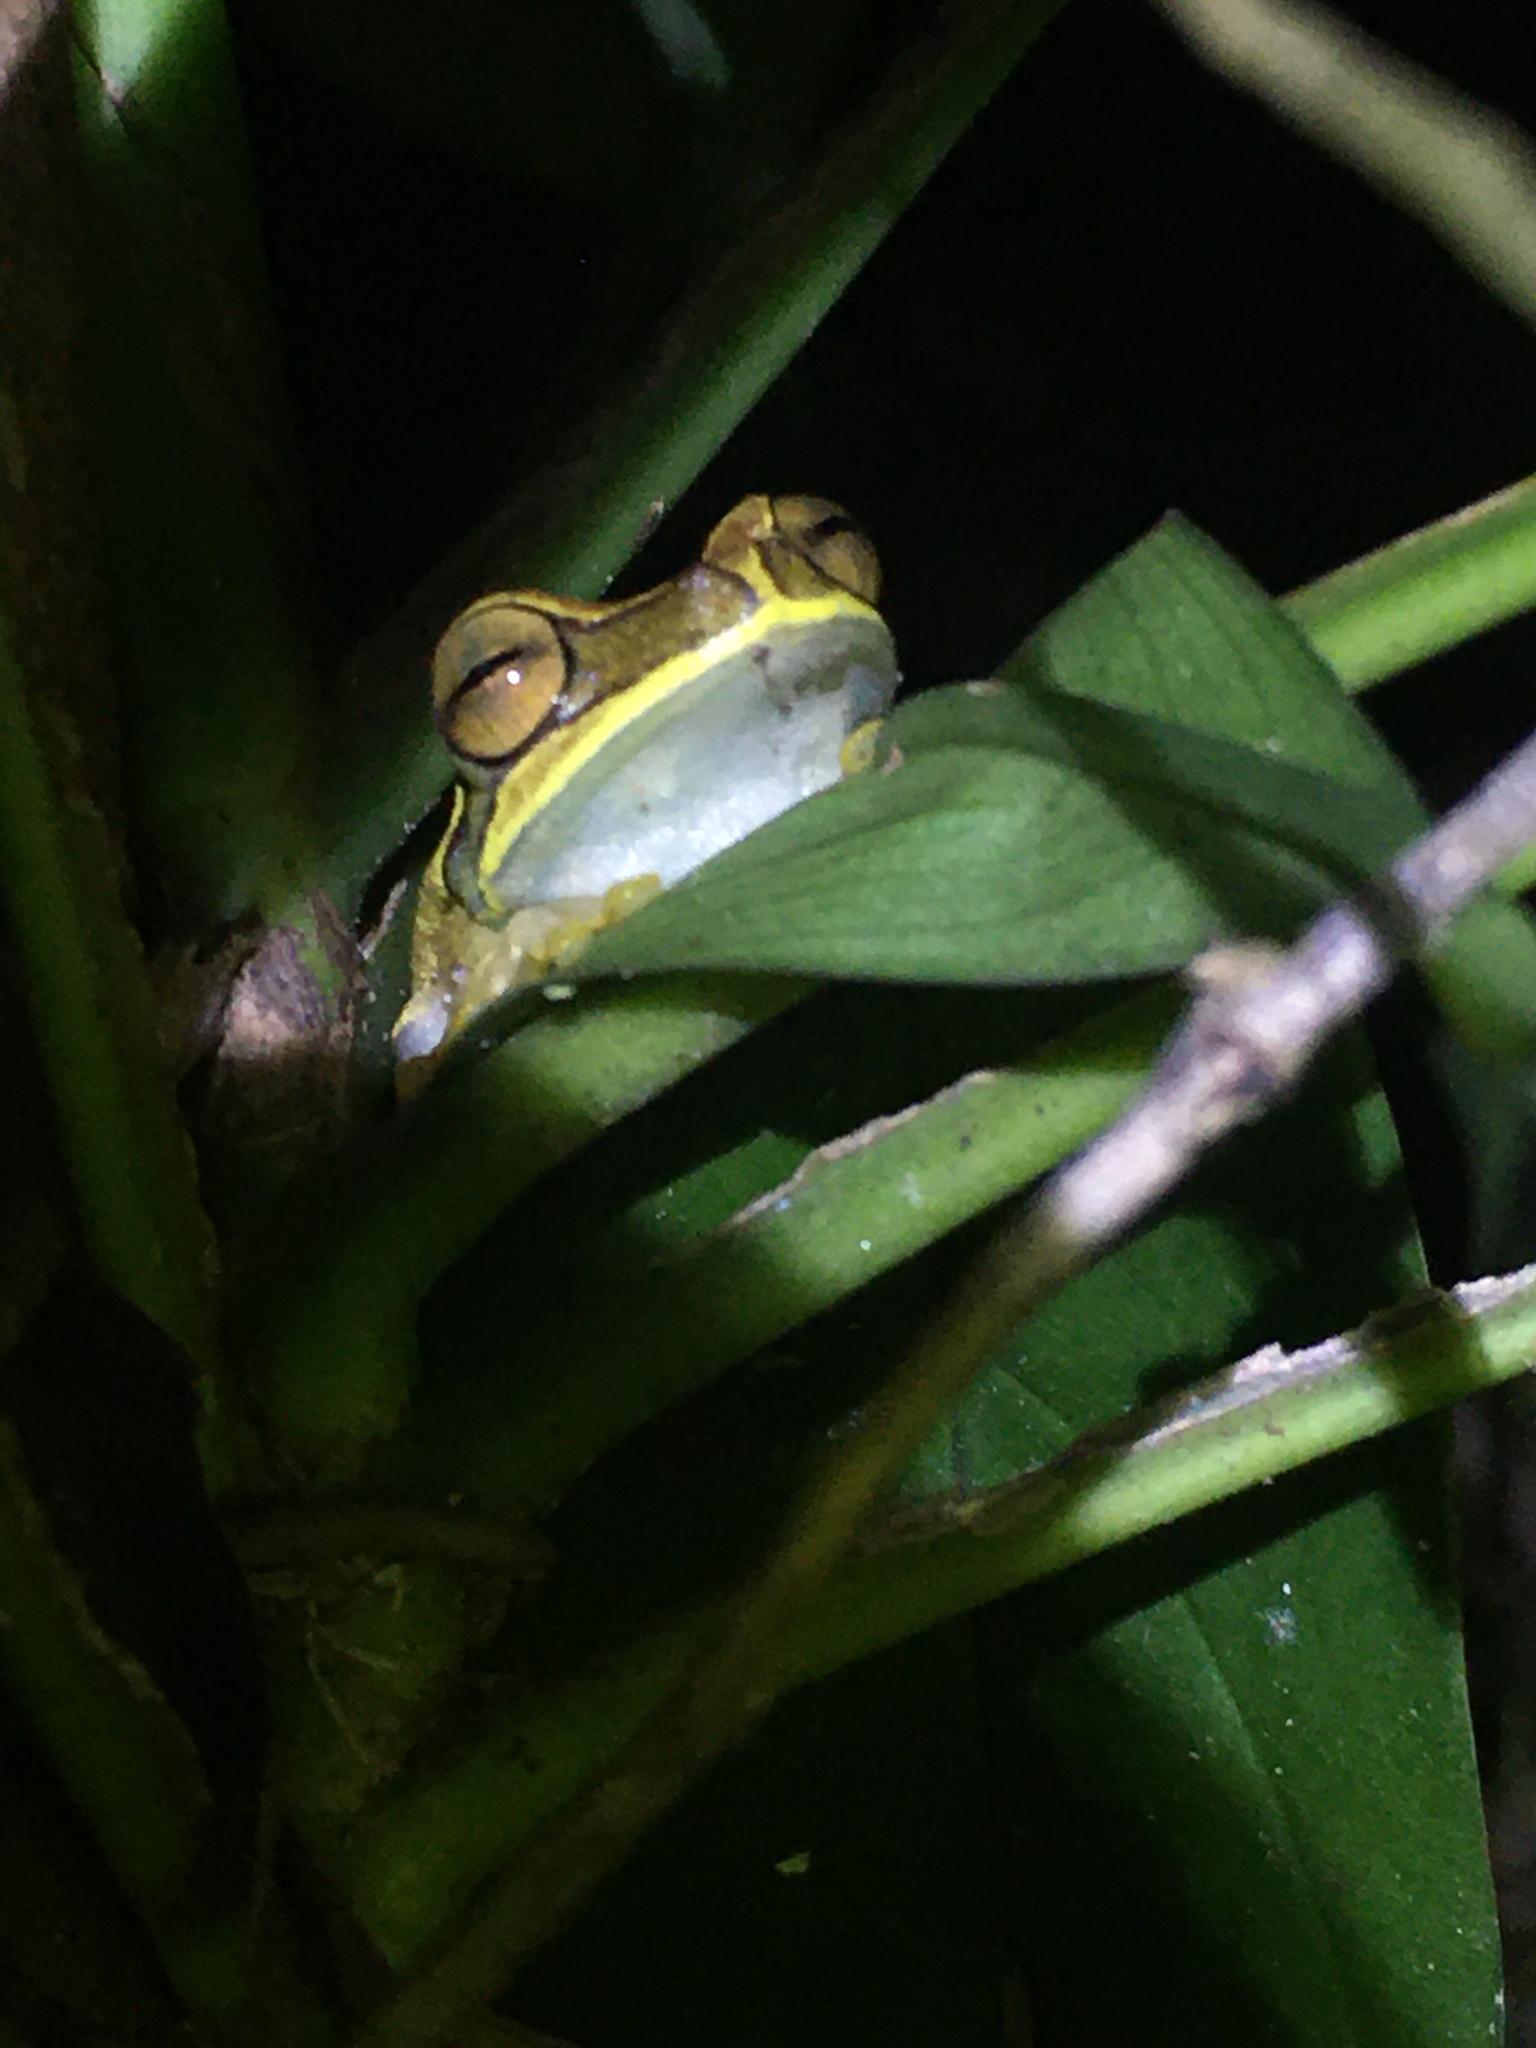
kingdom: Animalia
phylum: Chordata
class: Amphibia
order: Anura
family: Hylidae
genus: Boana
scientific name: Boana freicanecae
